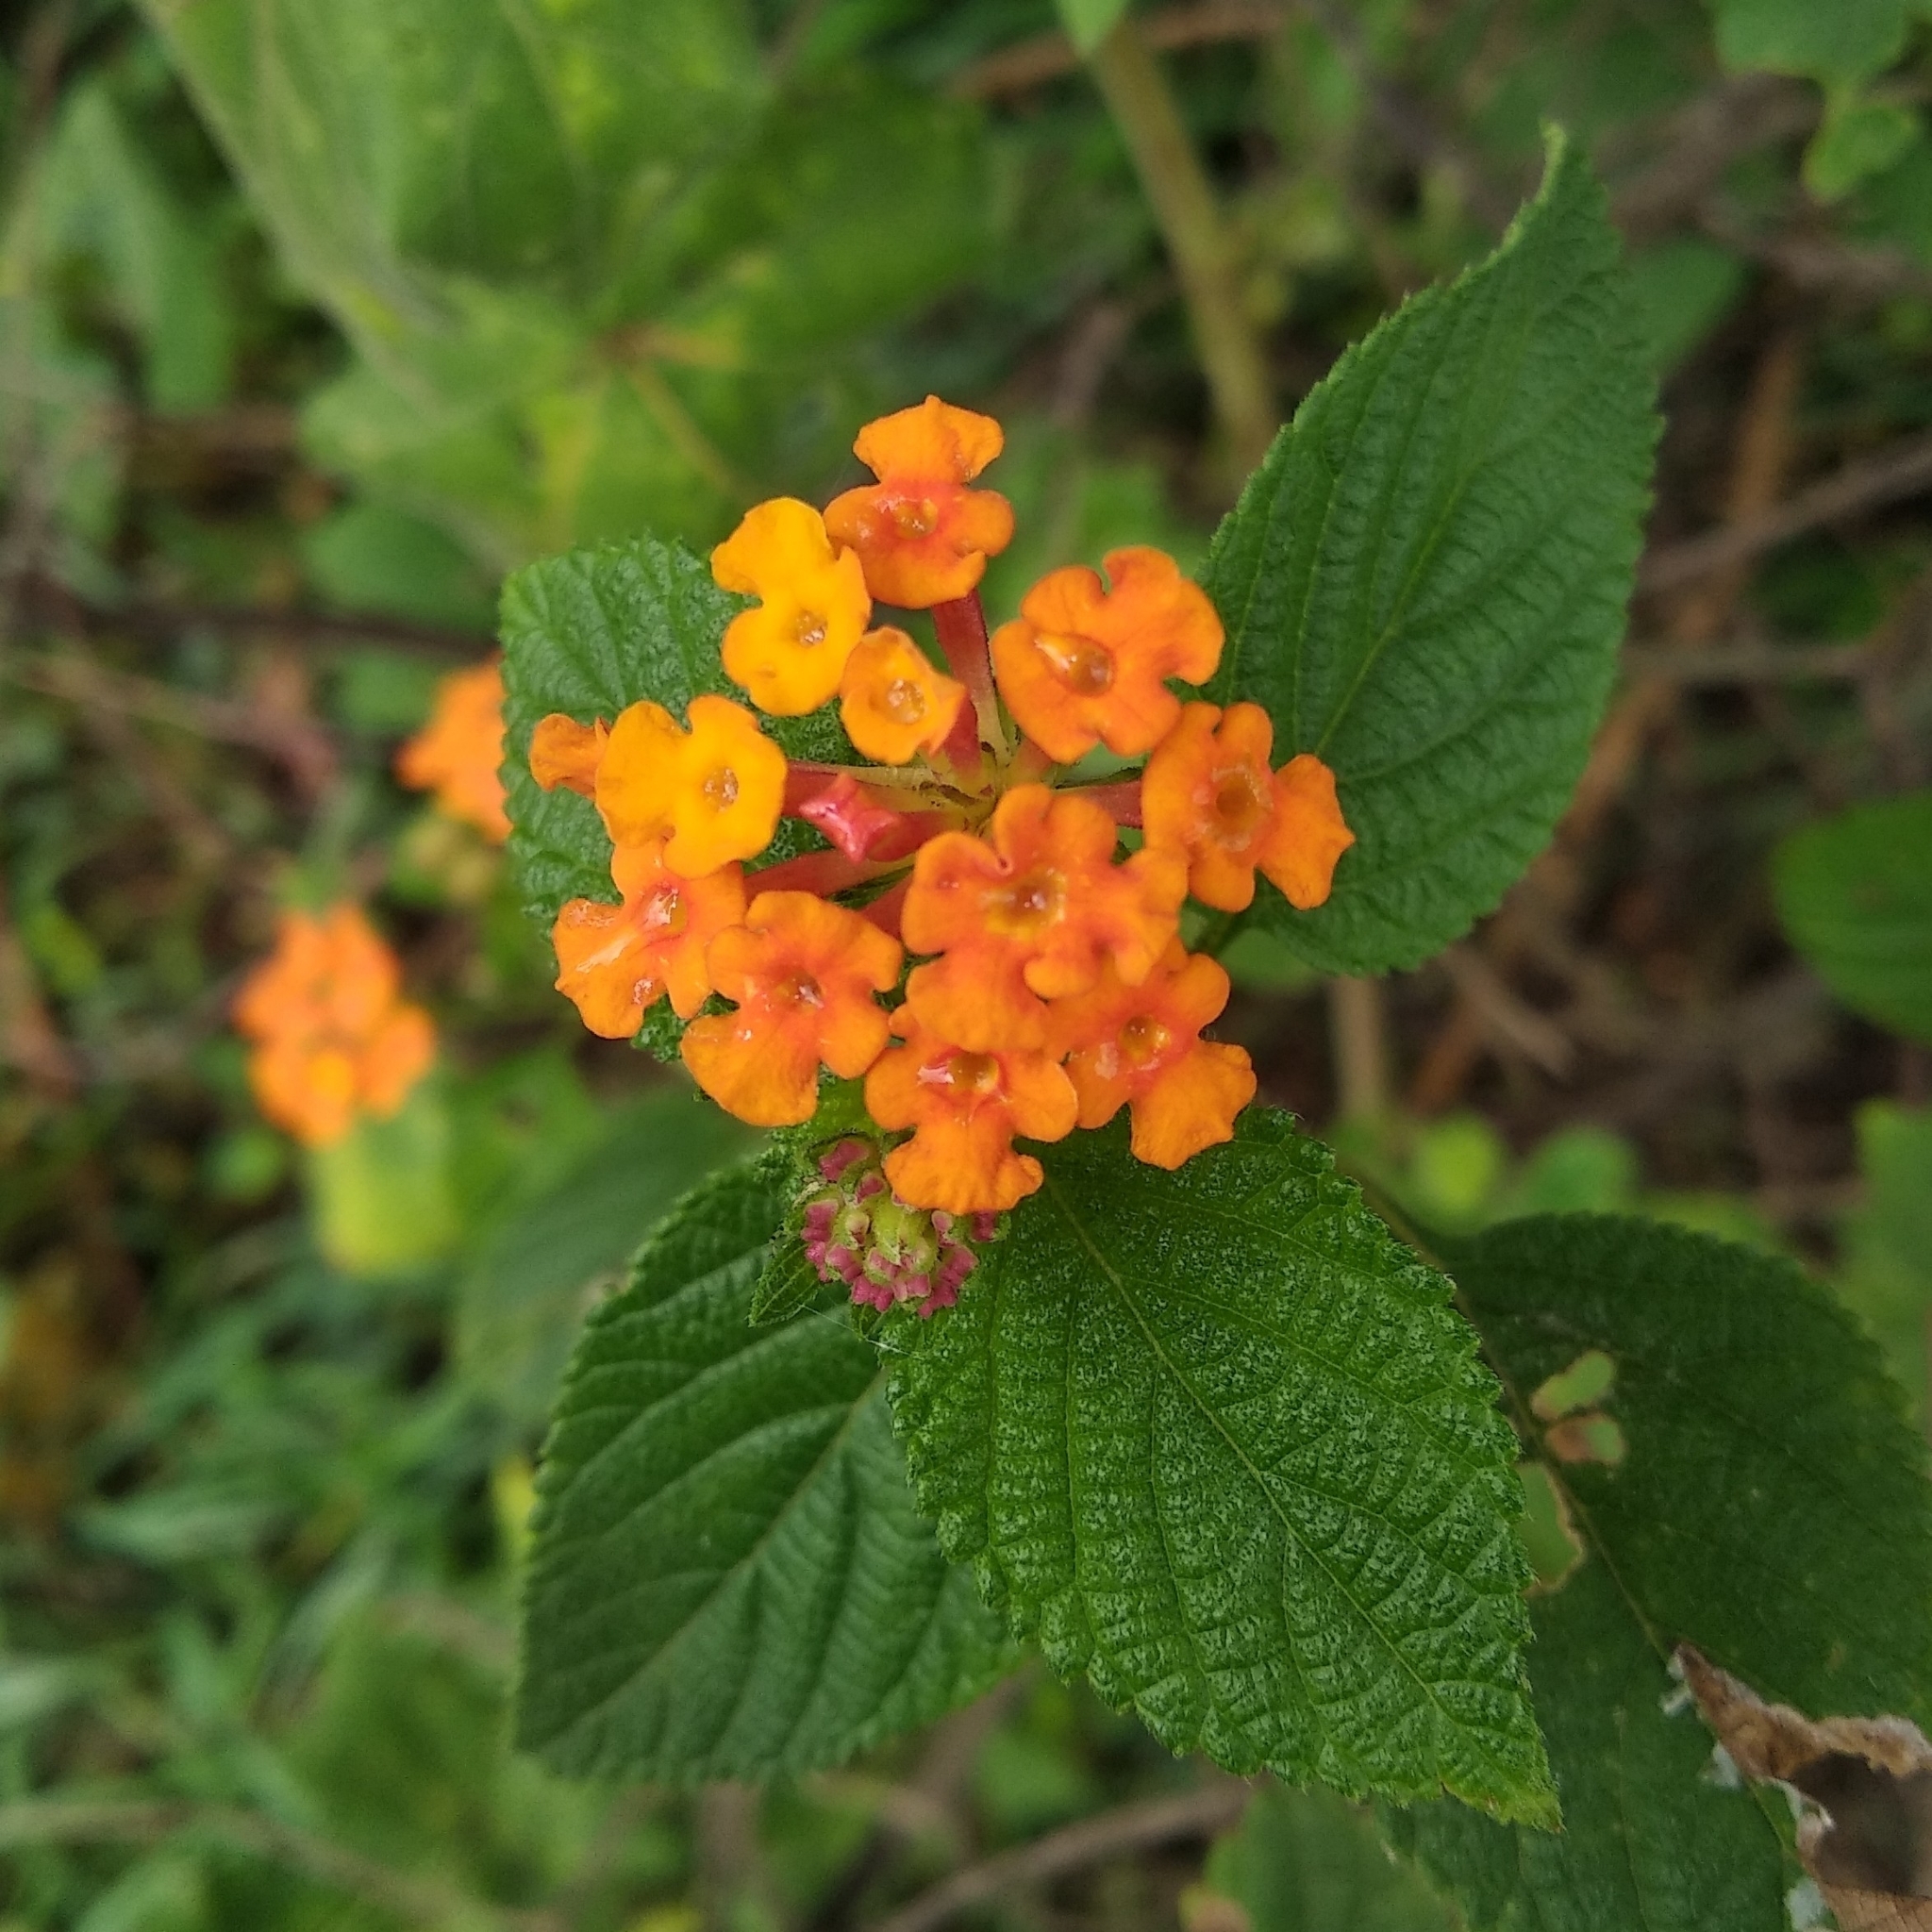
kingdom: Plantae
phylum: Tracheophyta
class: Magnoliopsida
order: Lamiales
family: Verbenaceae
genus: Lantana
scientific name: Lantana camara
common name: Lantana
